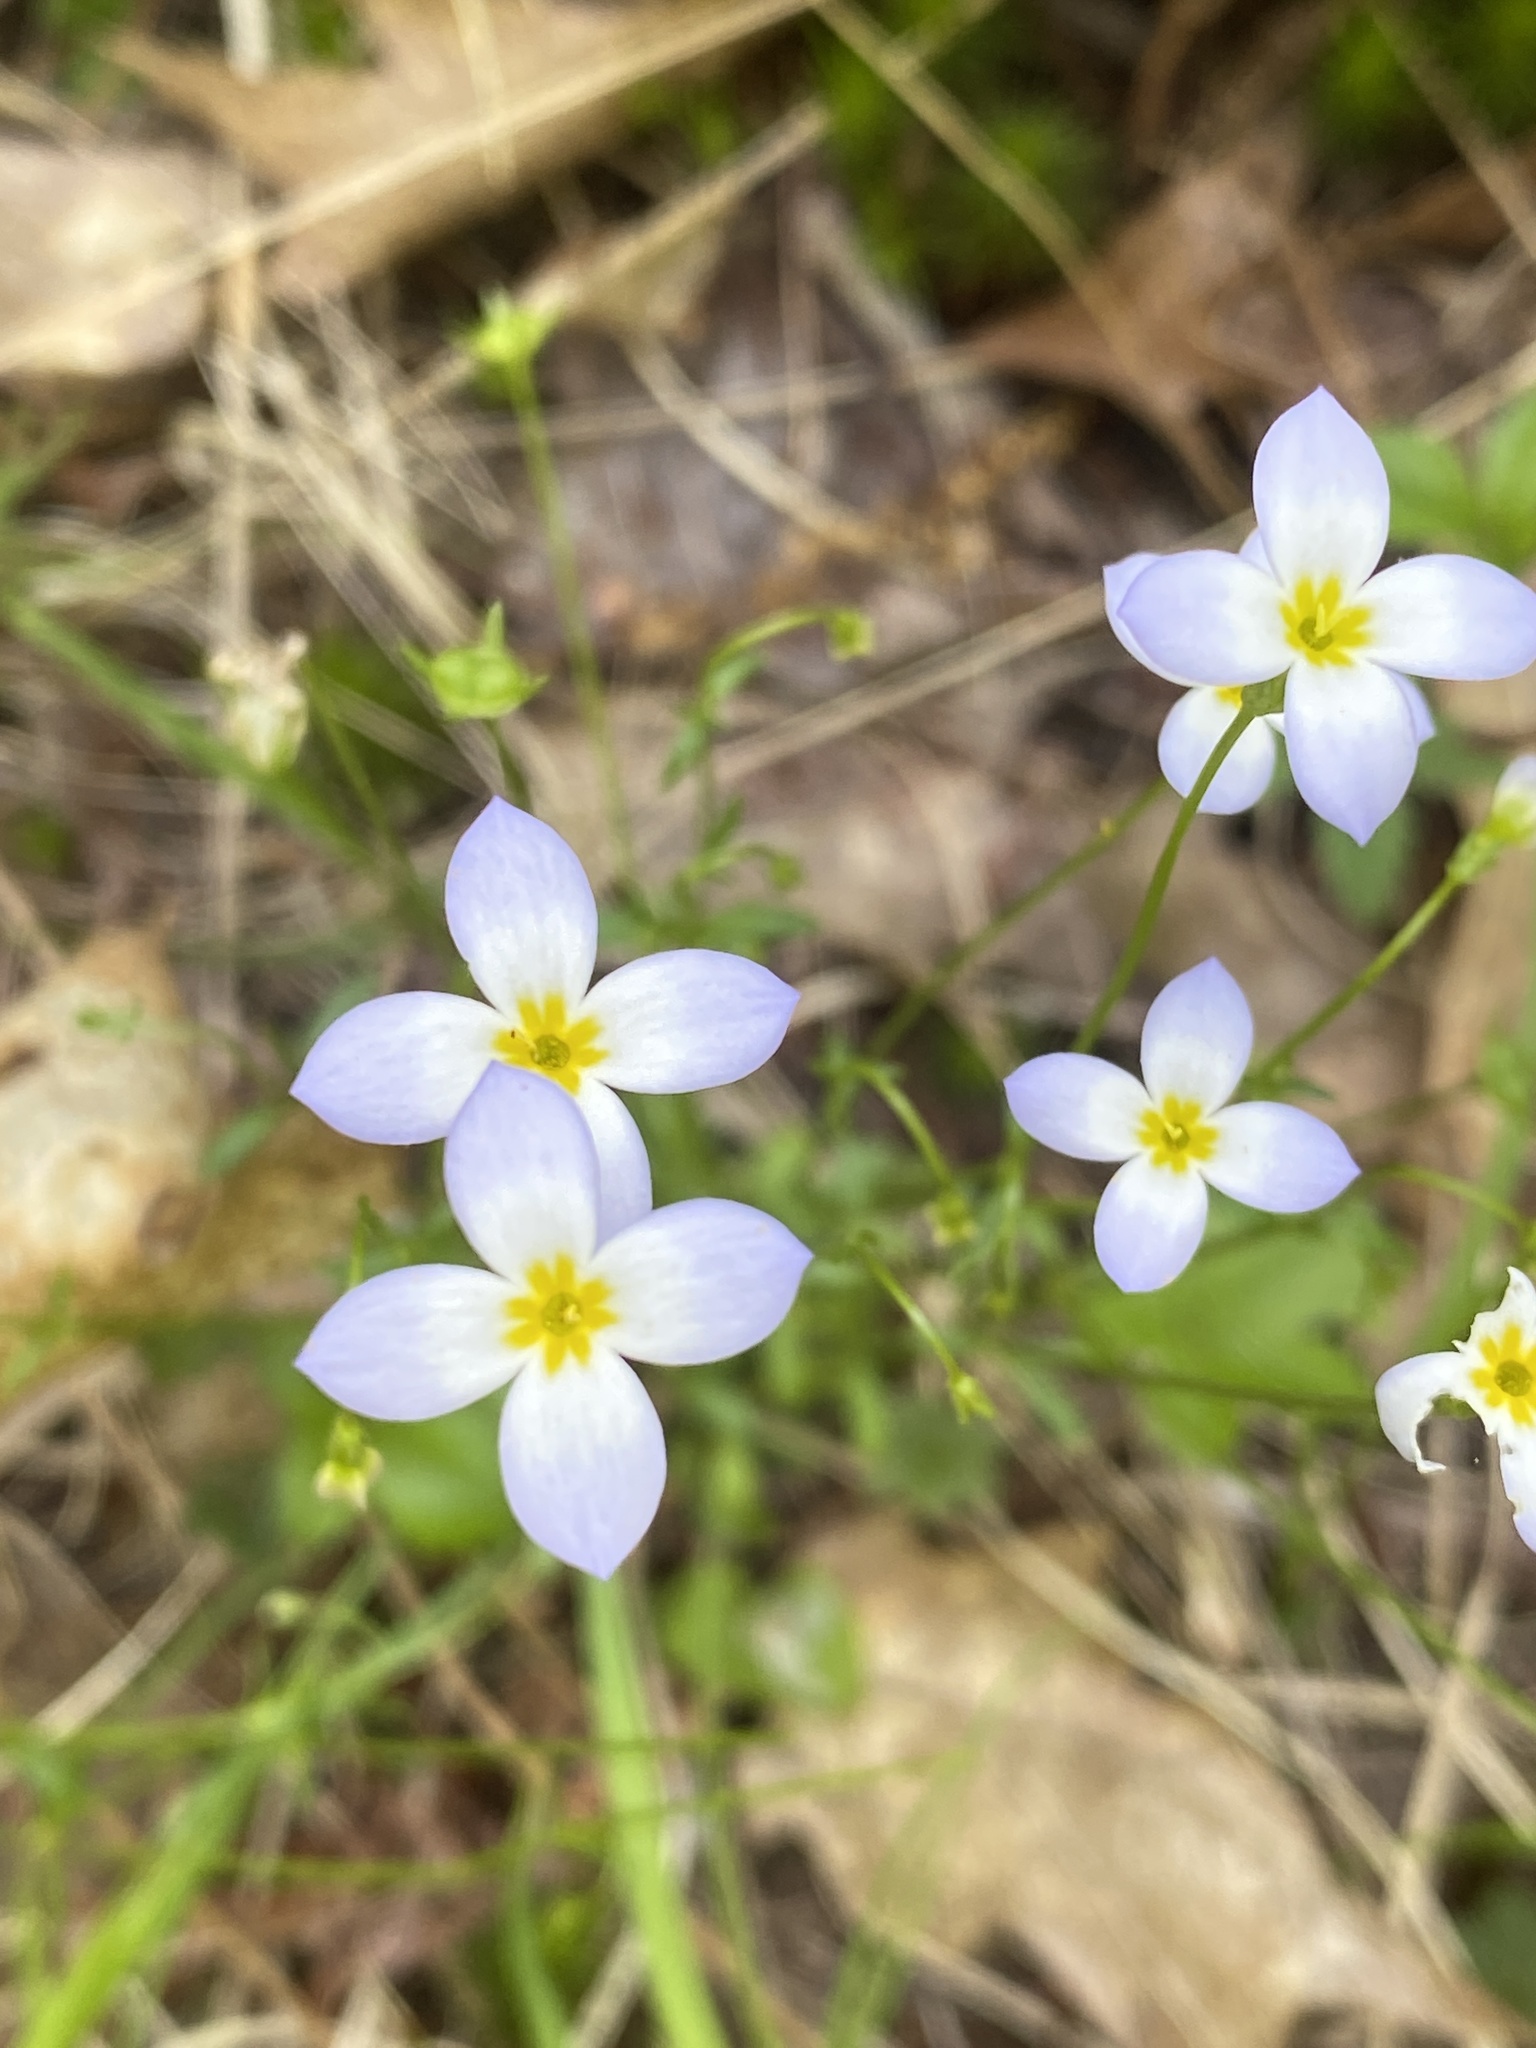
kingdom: Plantae
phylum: Tracheophyta
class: Magnoliopsida
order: Gentianales
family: Rubiaceae
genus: Houstonia
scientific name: Houstonia caerulea
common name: Bluets
